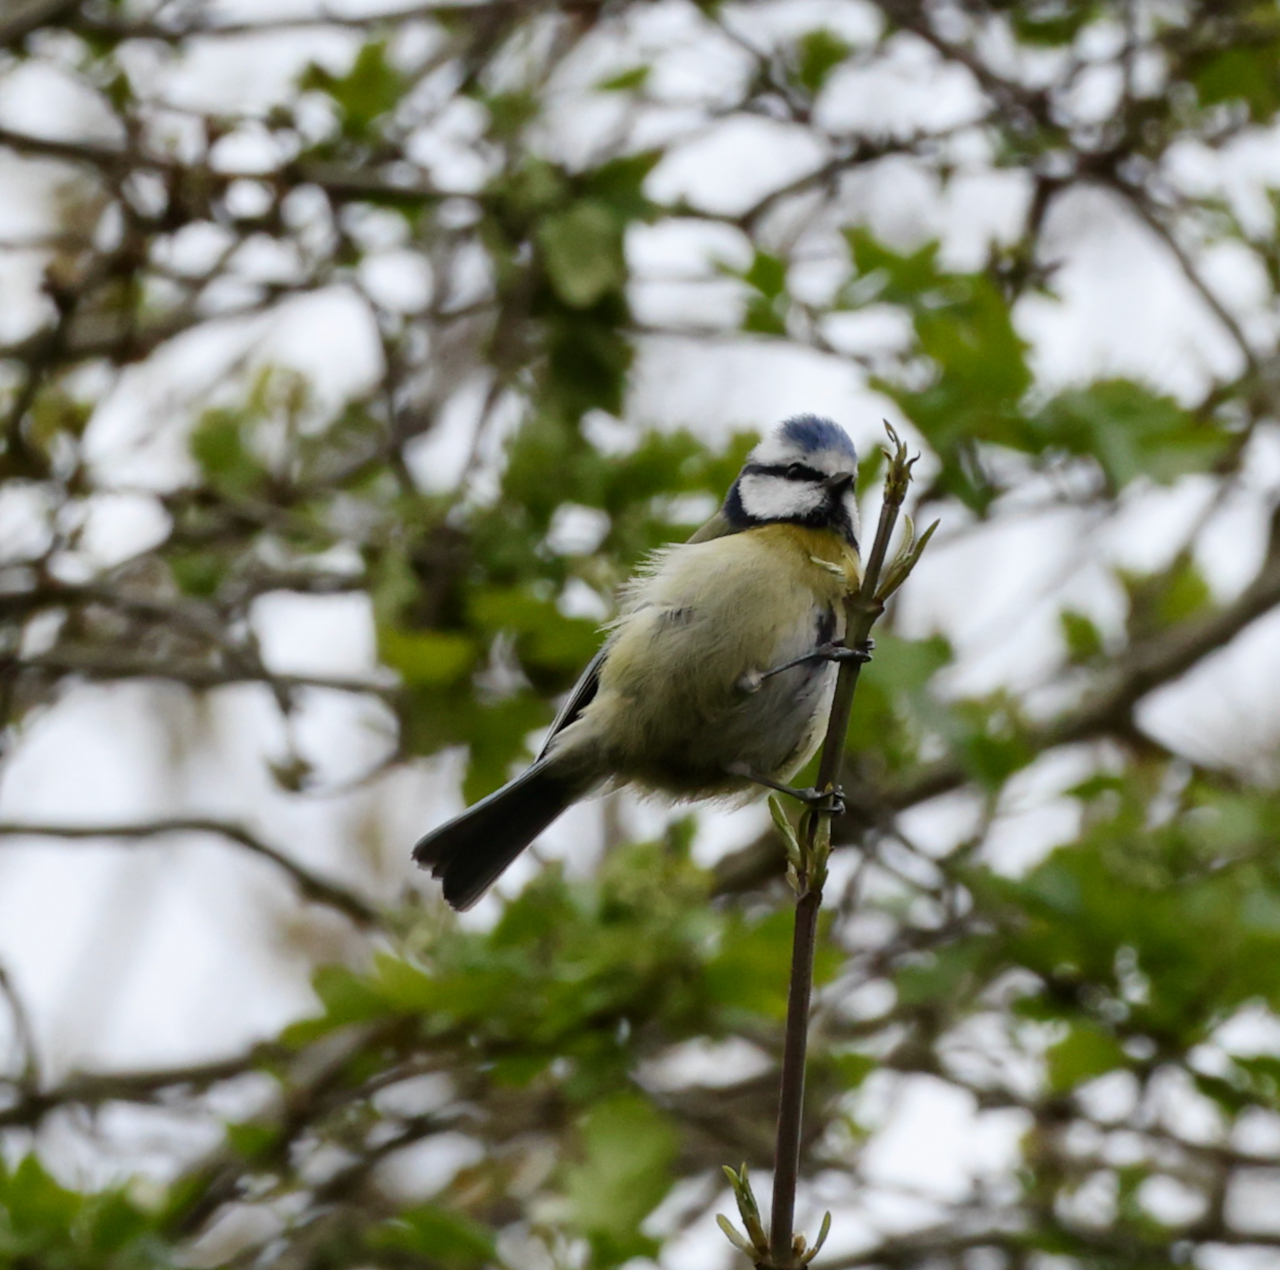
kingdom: Animalia
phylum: Chordata
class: Aves
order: Passeriformes
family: Paridae
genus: Cyanistes
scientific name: Cyanistes caeruleus
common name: Eurasian blue tit
